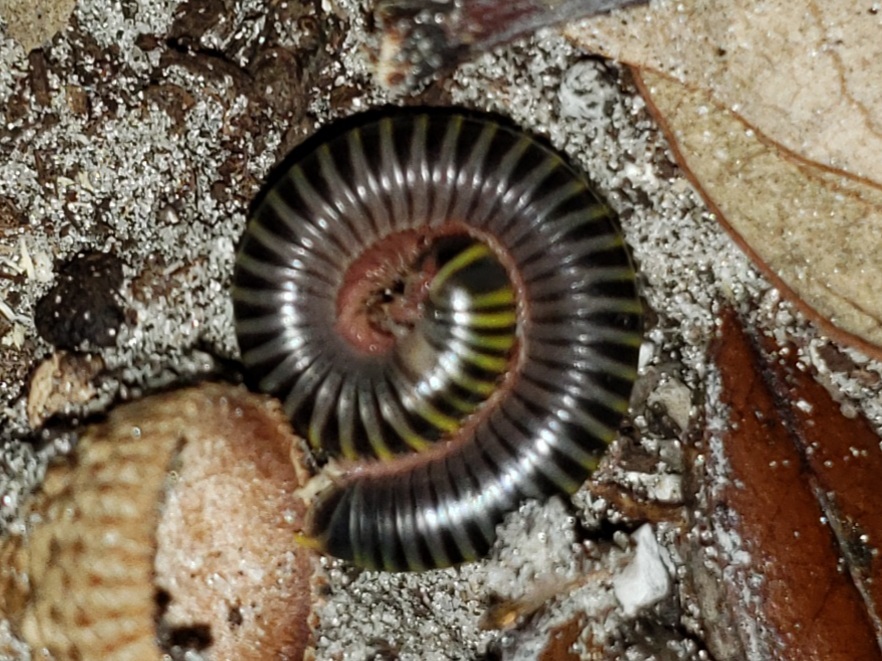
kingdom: Animalia
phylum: Arthropoda
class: Diplopoda
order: Spirobolida
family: Rhinocricidae
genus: Anadenobolus
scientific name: Anadenobolus monilicornis
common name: Caribbean millipede
